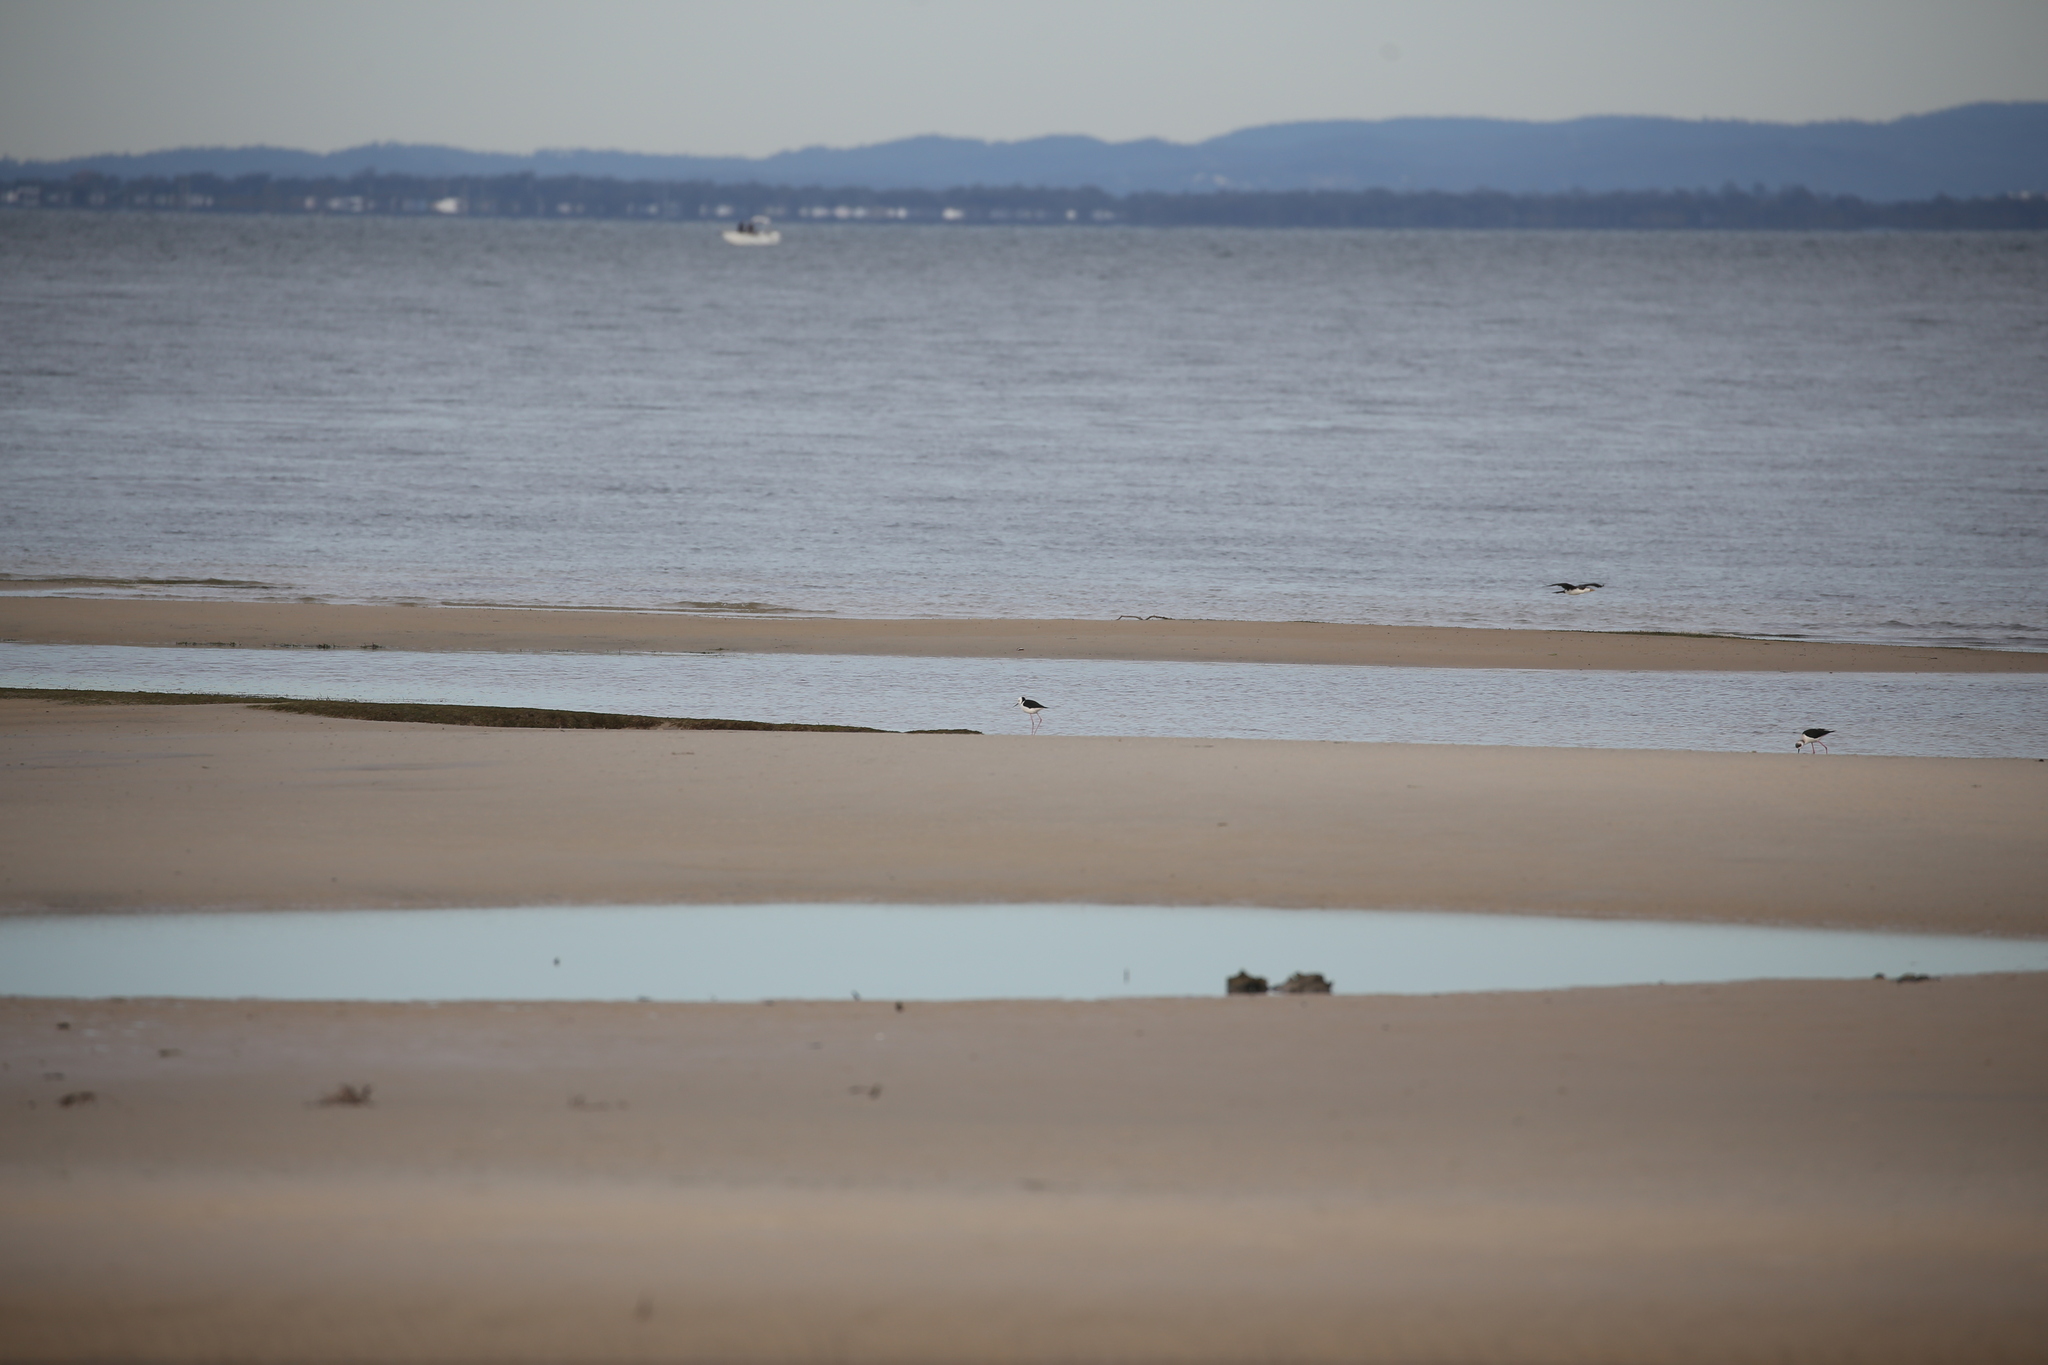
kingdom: Animalia
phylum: Chordata
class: Aves
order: Charadriiformes
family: Recurvirostridae
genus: Himantopus
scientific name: Himantopus leucocephalus
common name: White-headed stilt
